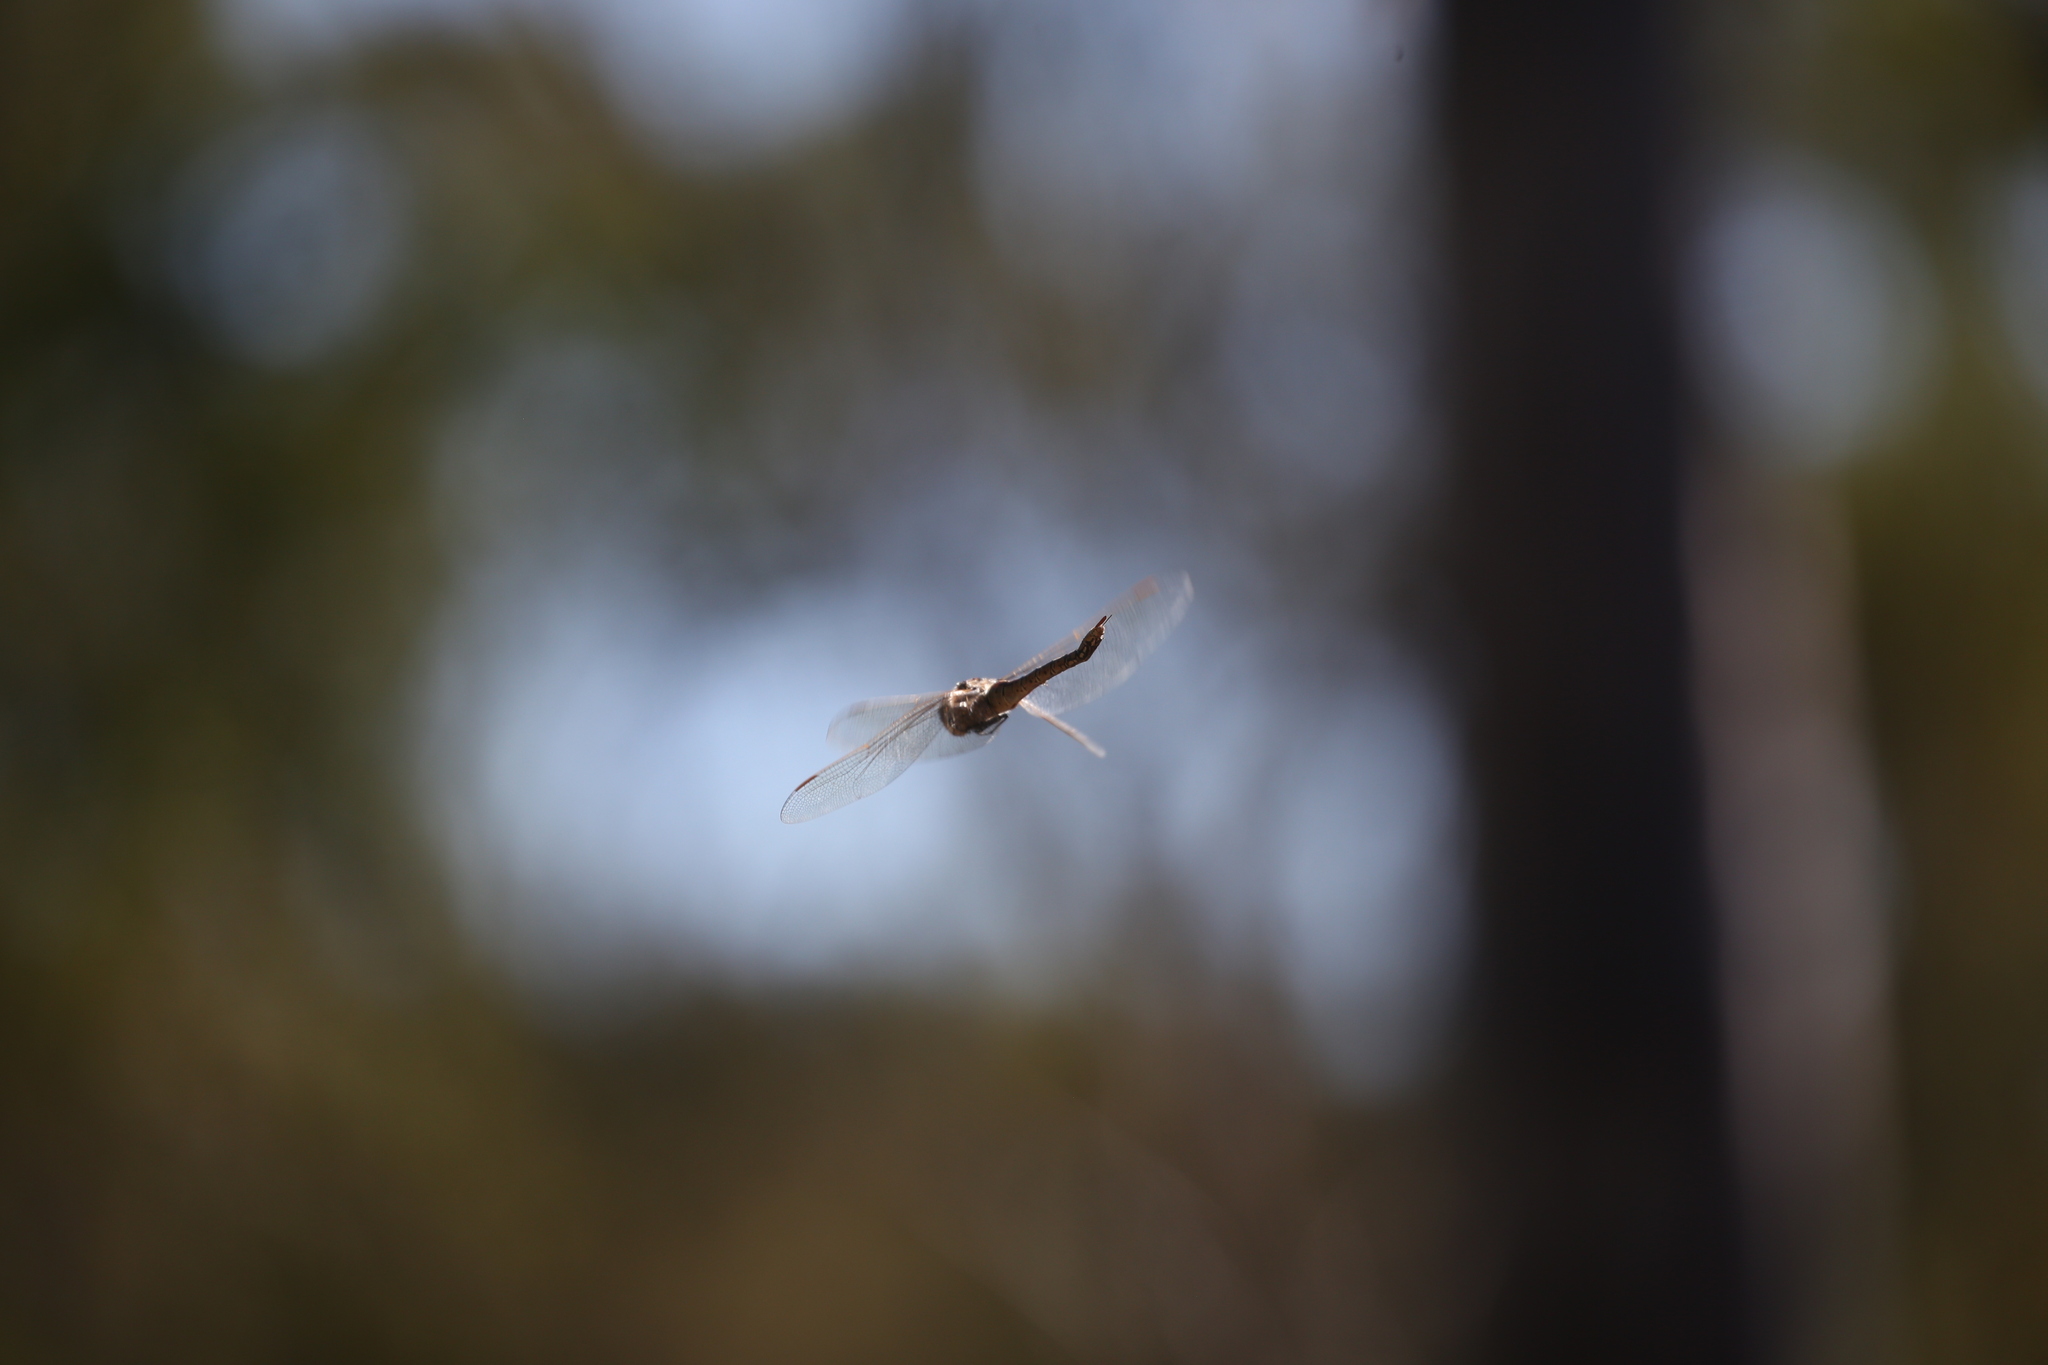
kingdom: Animalia
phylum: Arthropoda
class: Insecta
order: Odonata
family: Aeshnidae
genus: Anax
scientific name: Anax papuensis
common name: Australian emperor
